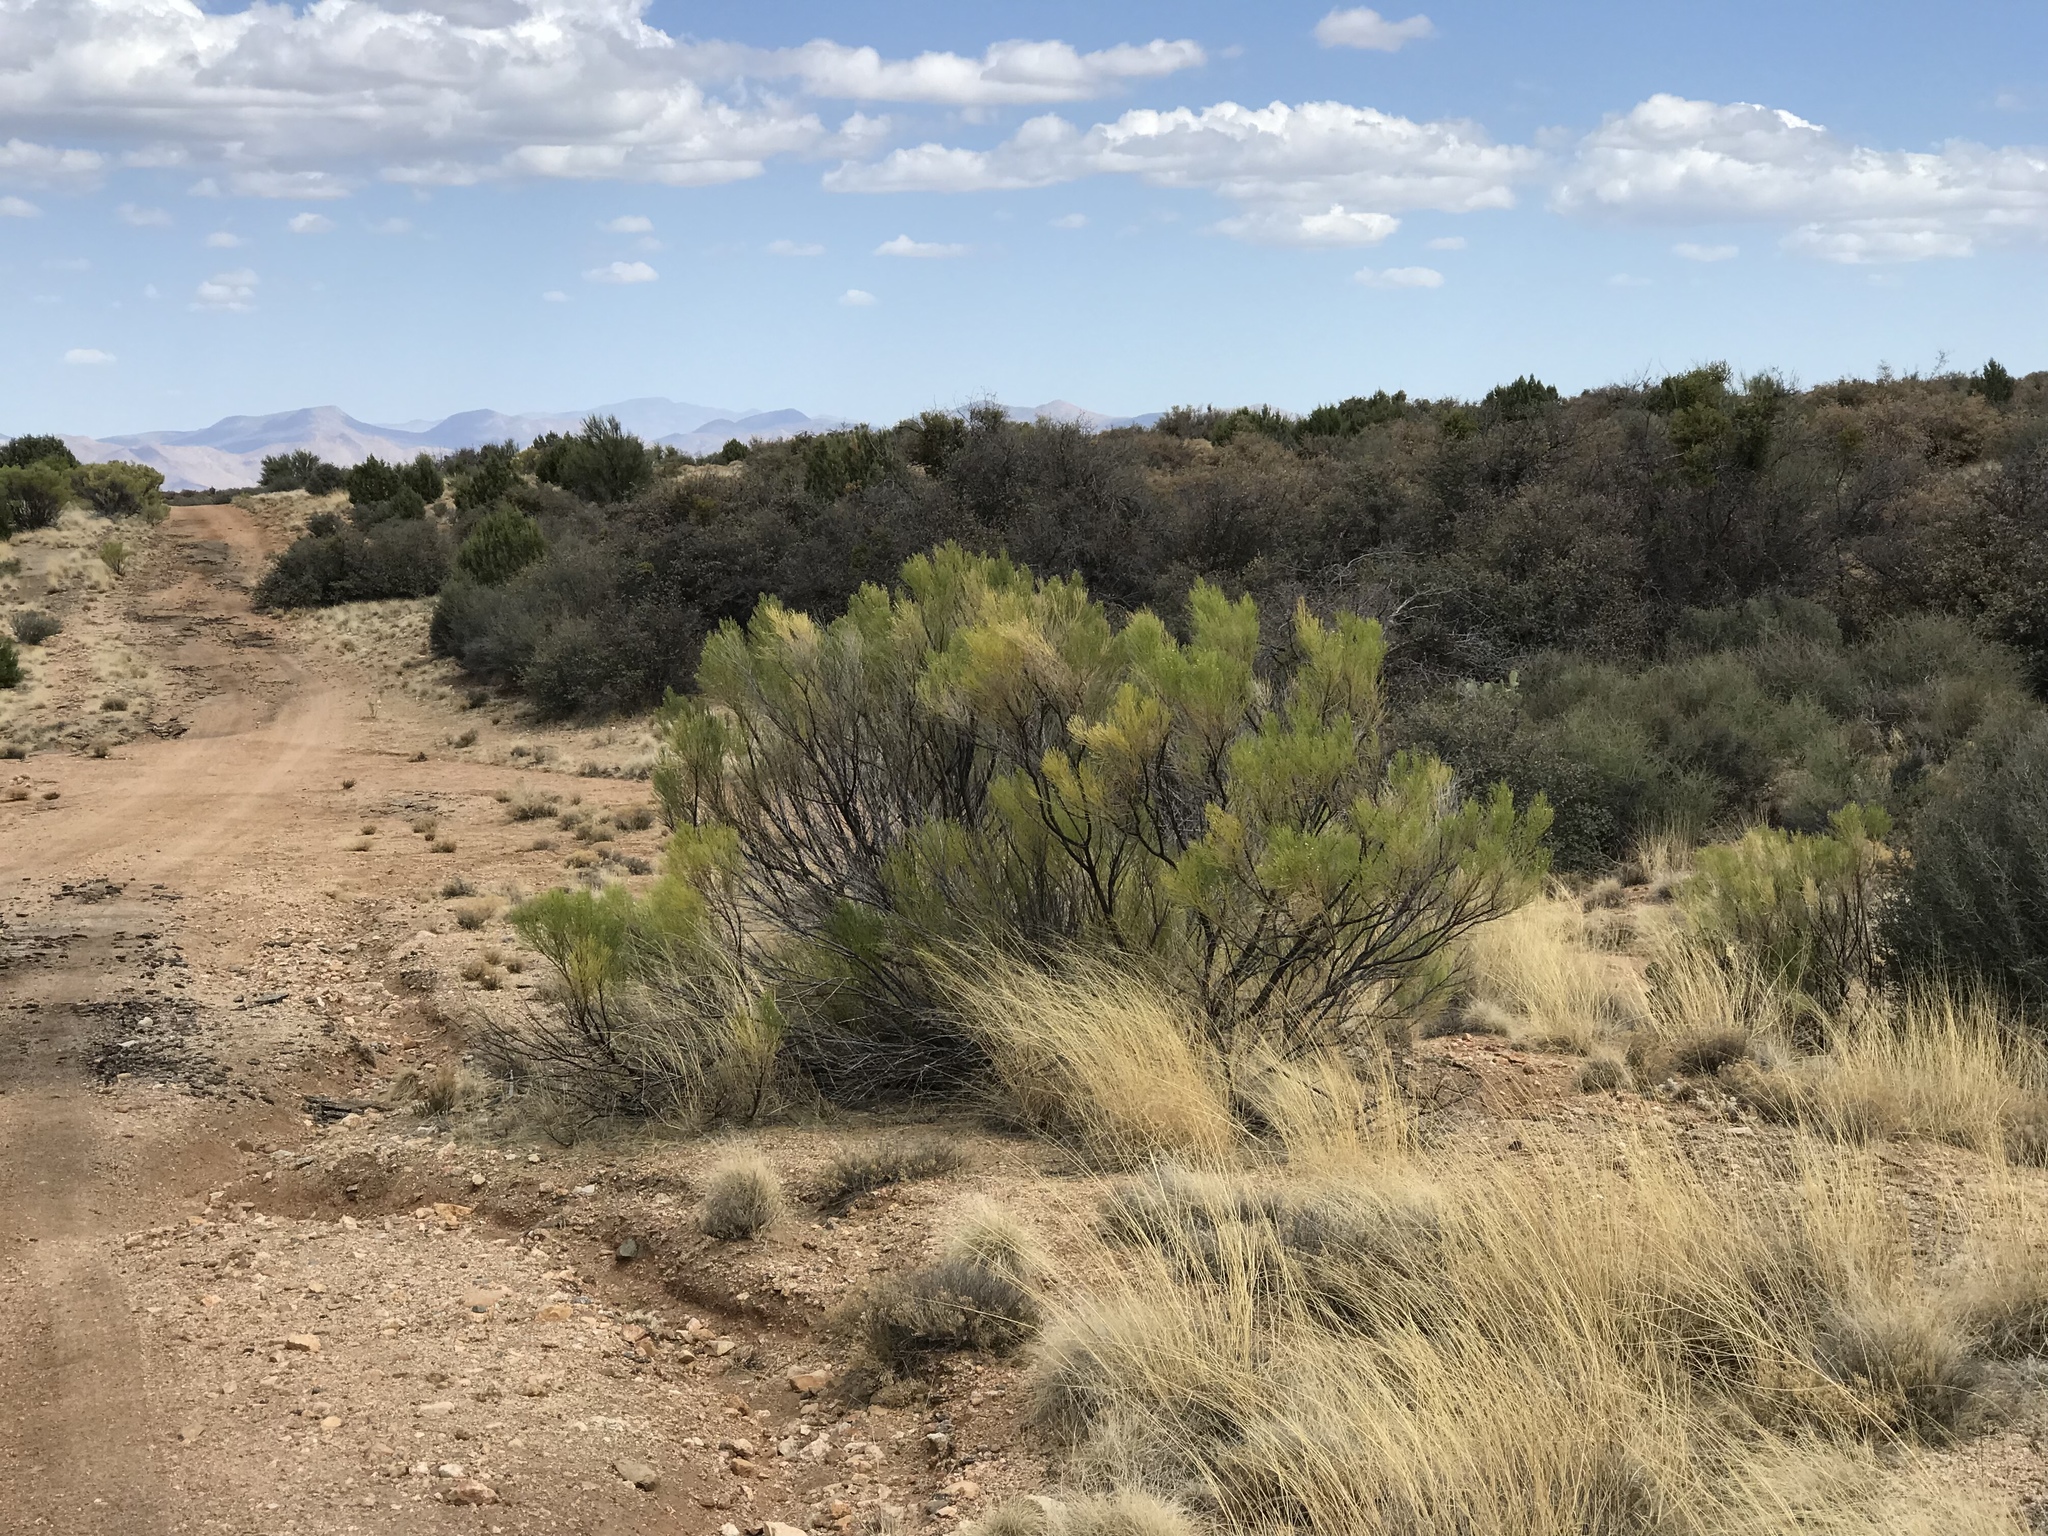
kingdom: Plantae
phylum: Tracheophyta
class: Magnoliopsida
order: Asterales
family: Asteraceae
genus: Baccharis
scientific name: Baccharis sarothroides
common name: Desert-broom
